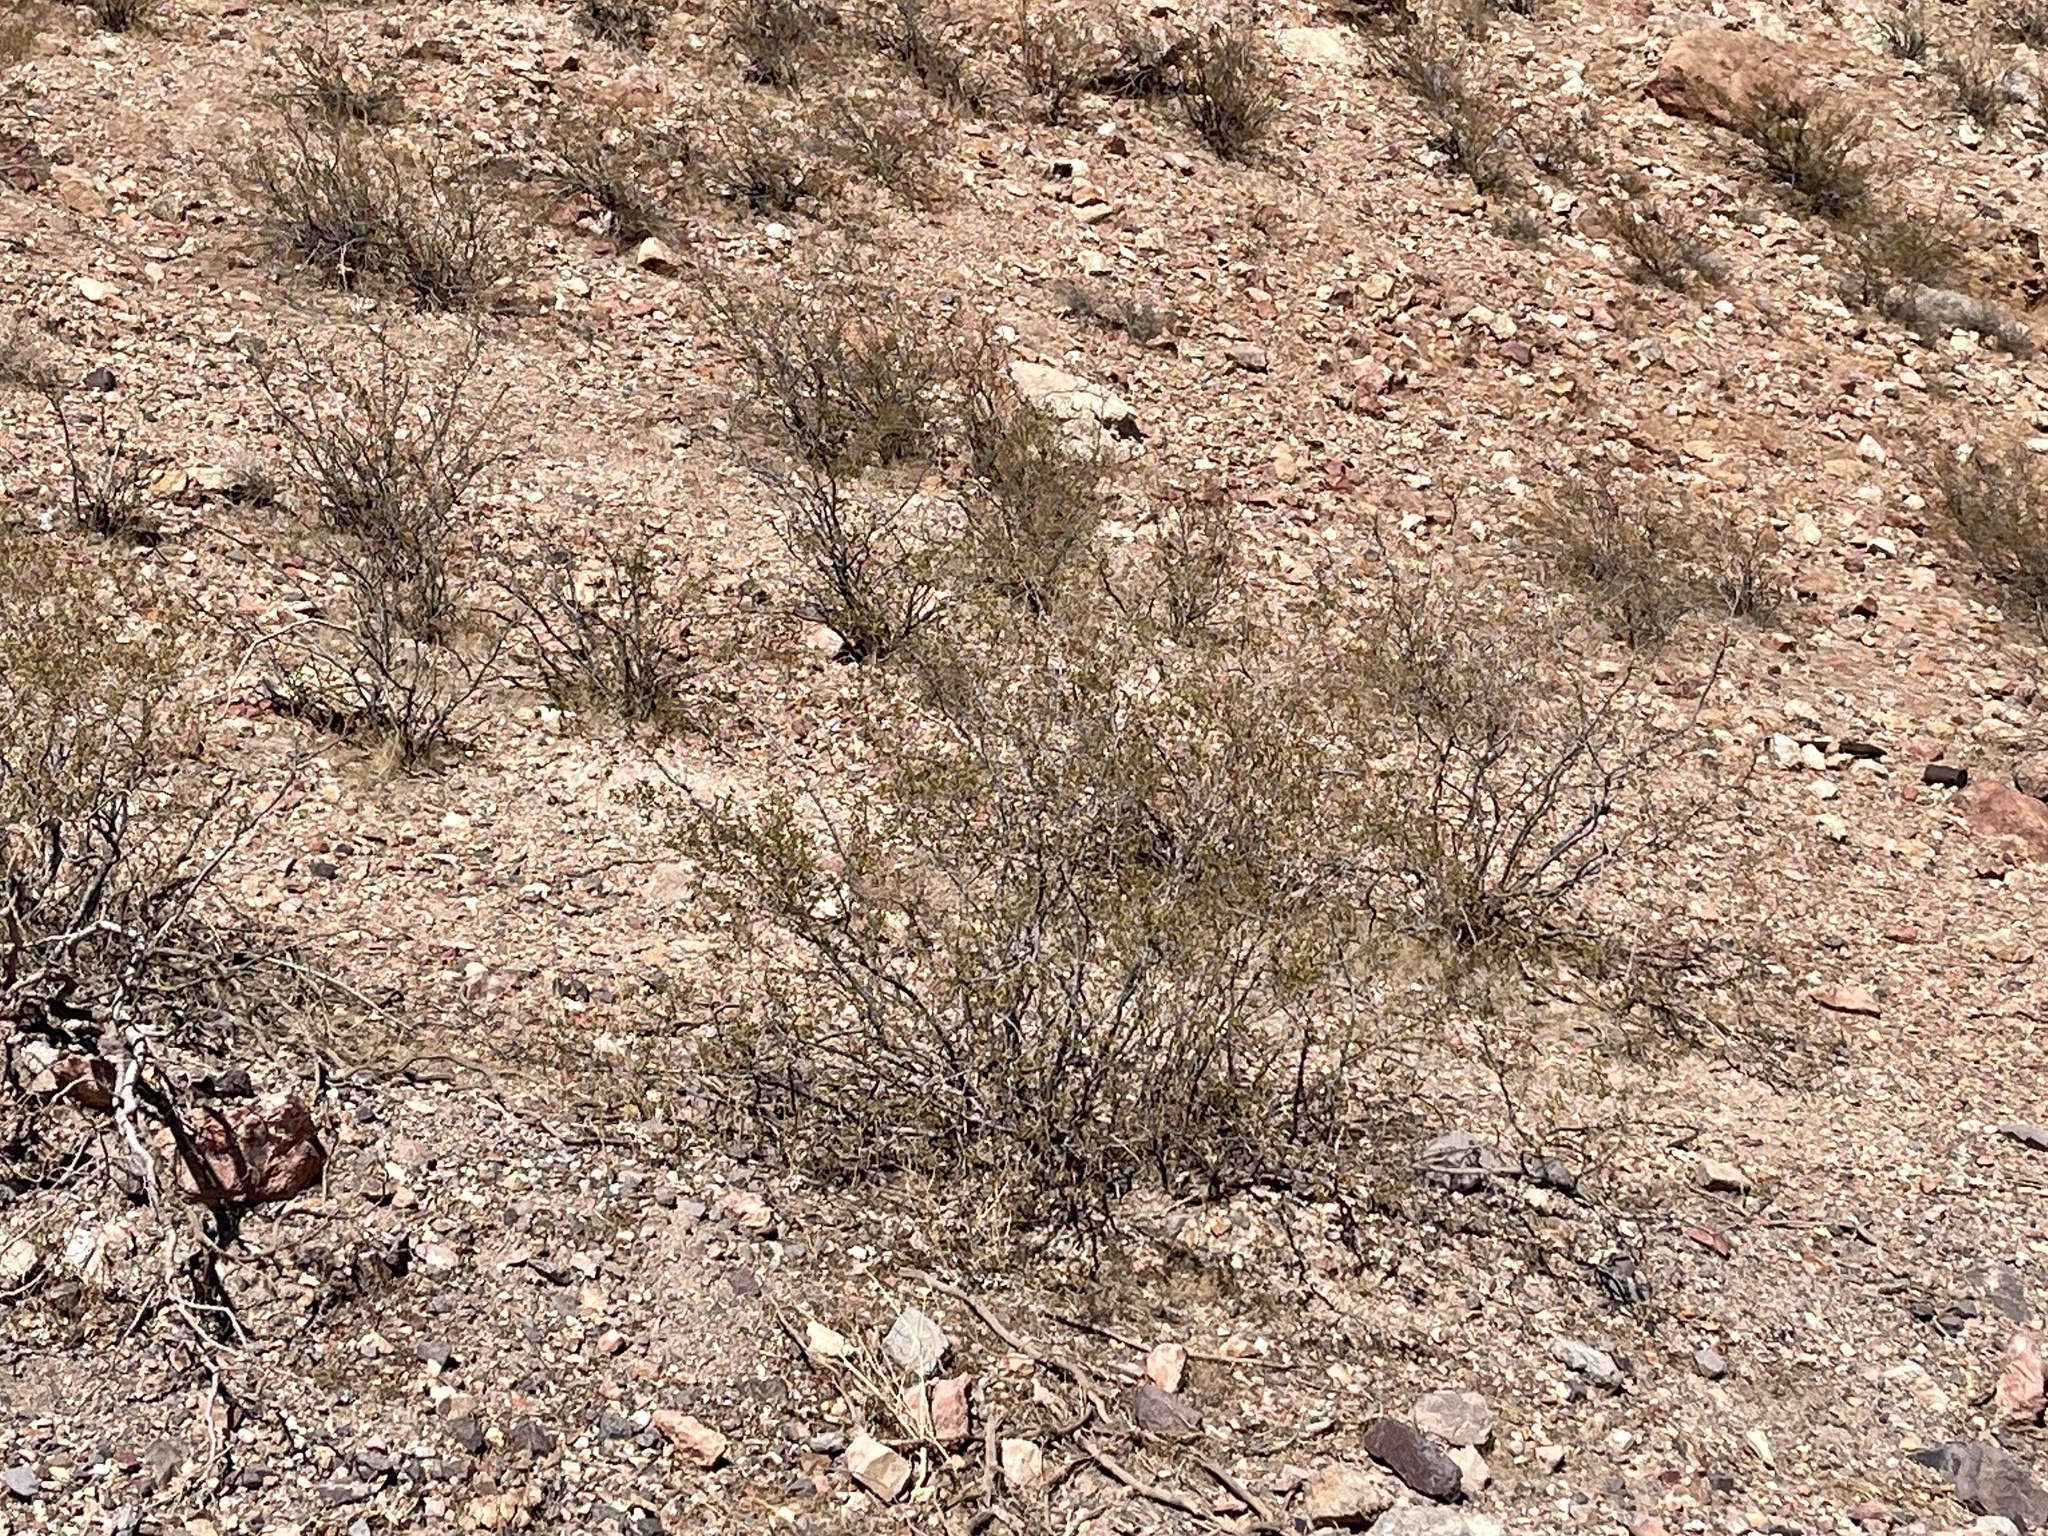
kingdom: Plantae
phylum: Tracheophyta
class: Magnoliopsida
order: Zygophyllales
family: Zygophyllaceae
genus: Larrea
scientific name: Larrea tridentata
